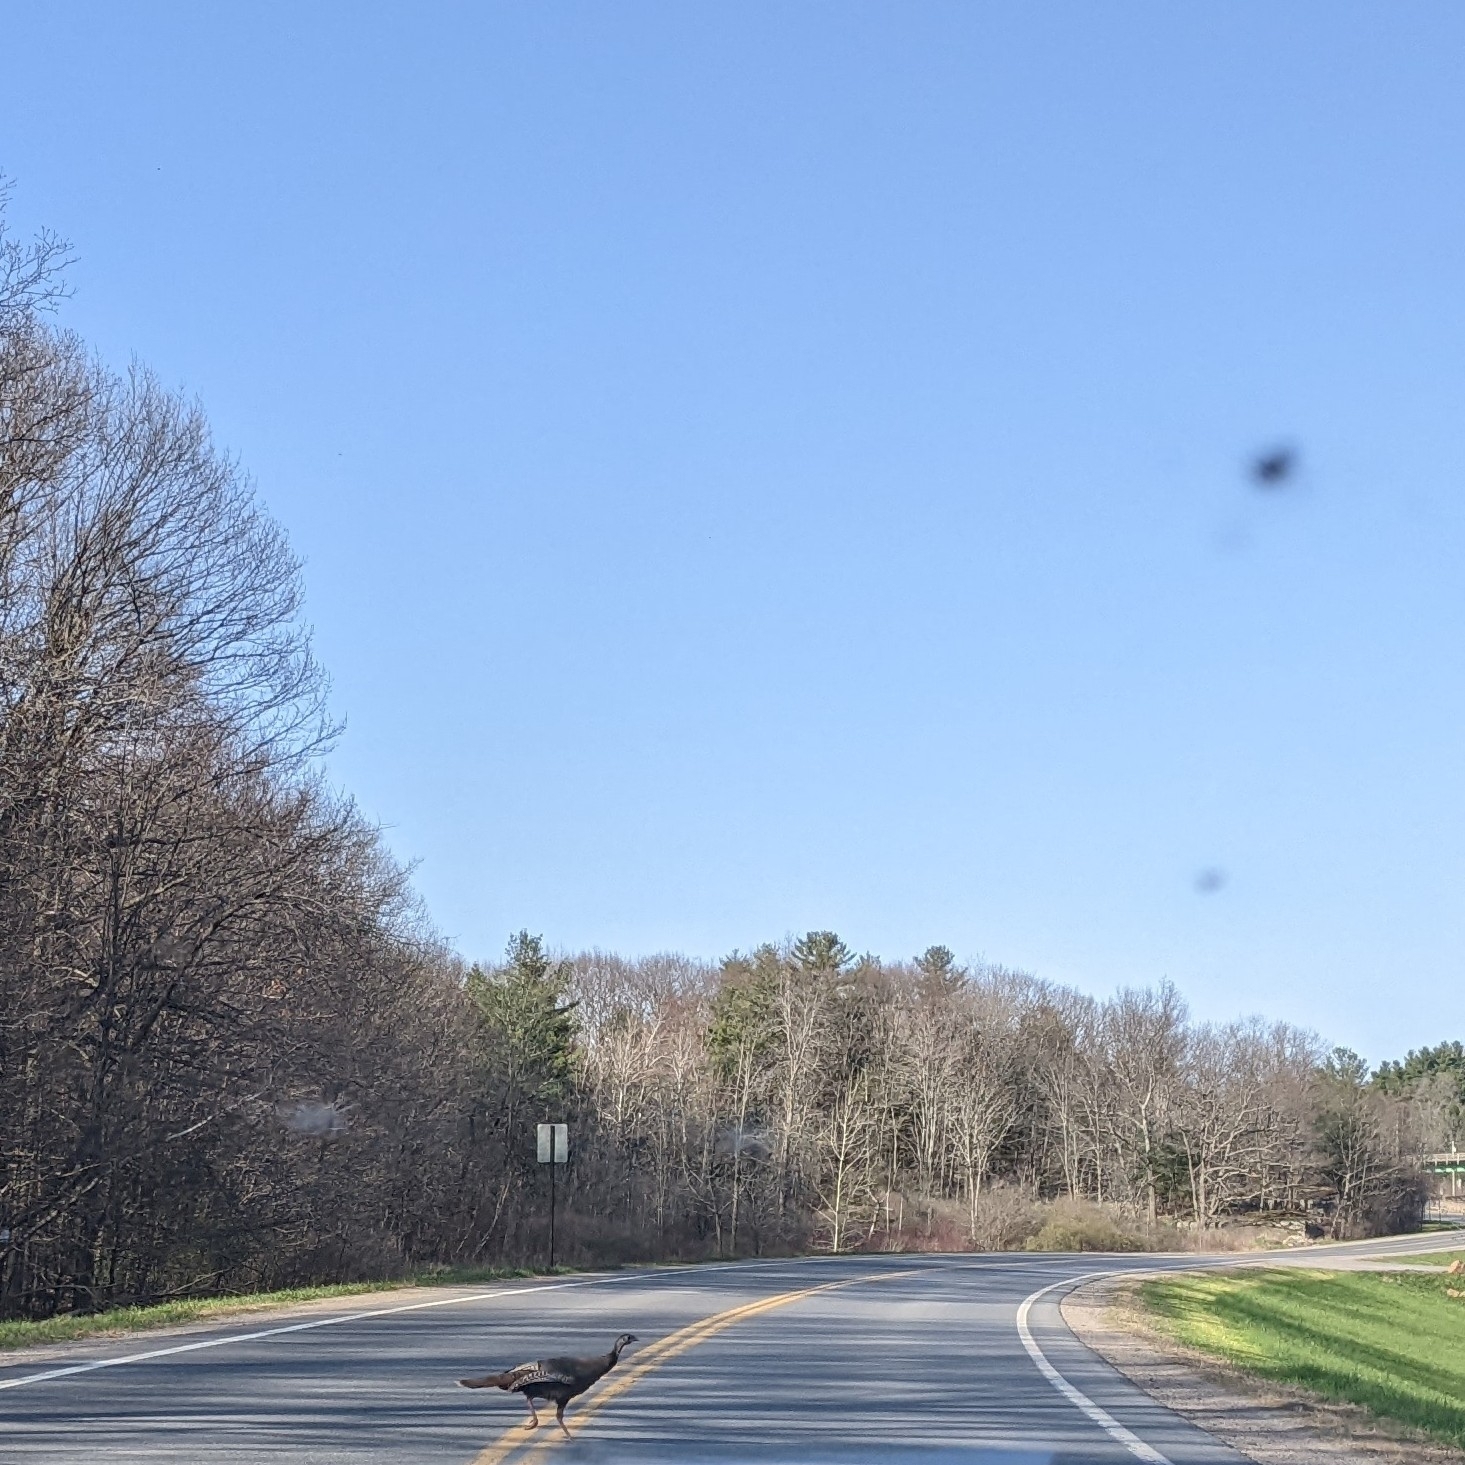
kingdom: Animalia
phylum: Chordata
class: Aves
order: Galliformes
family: Phasianidae
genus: Meleagris
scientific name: Meleagris gallopavo
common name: Wild turkey
